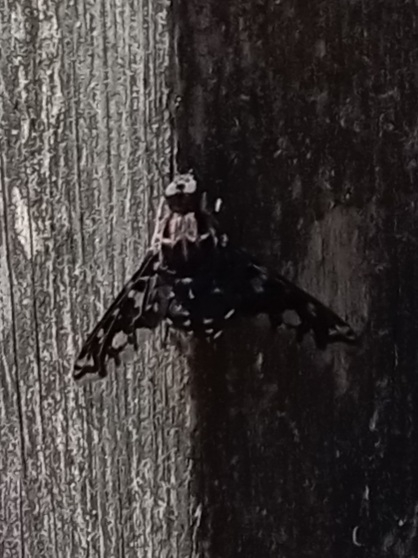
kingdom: Animalia
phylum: Arthropoda
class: Insecta
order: Diptera
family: Bombyliidae
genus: Xenox
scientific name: Xenox tigrinus
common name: Tiger bee fly
